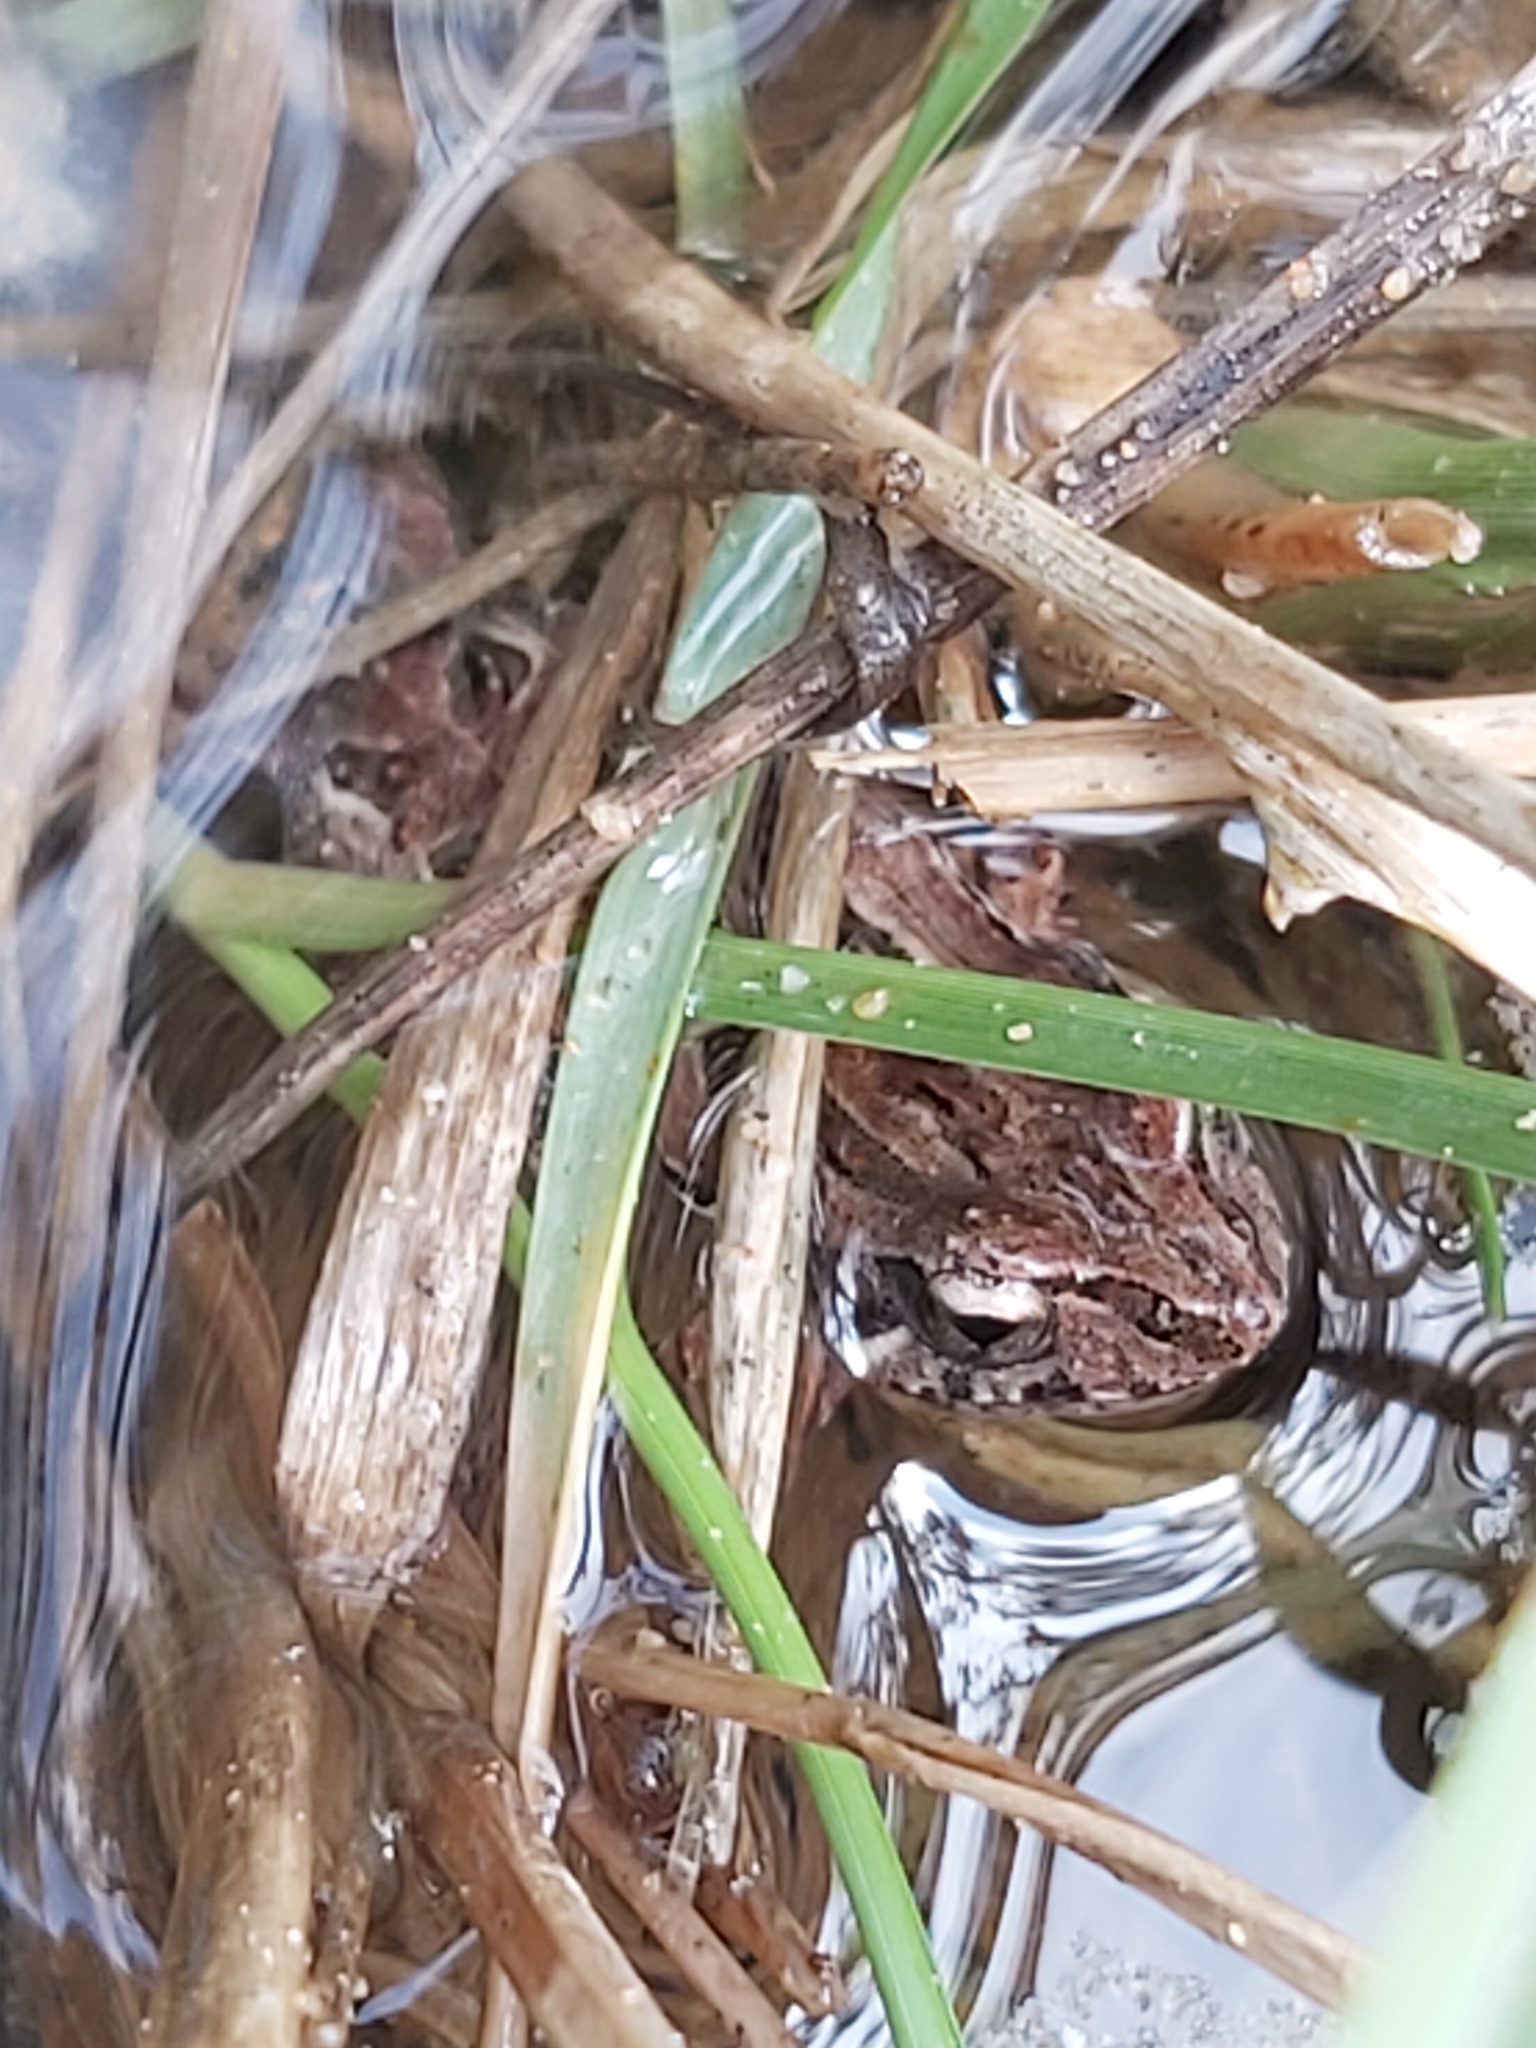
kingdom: Animalia
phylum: Chordata
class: Amphibia
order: Anura
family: Myobatrachidae
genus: Crinia
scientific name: Crinia signifera
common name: Brown froglet
